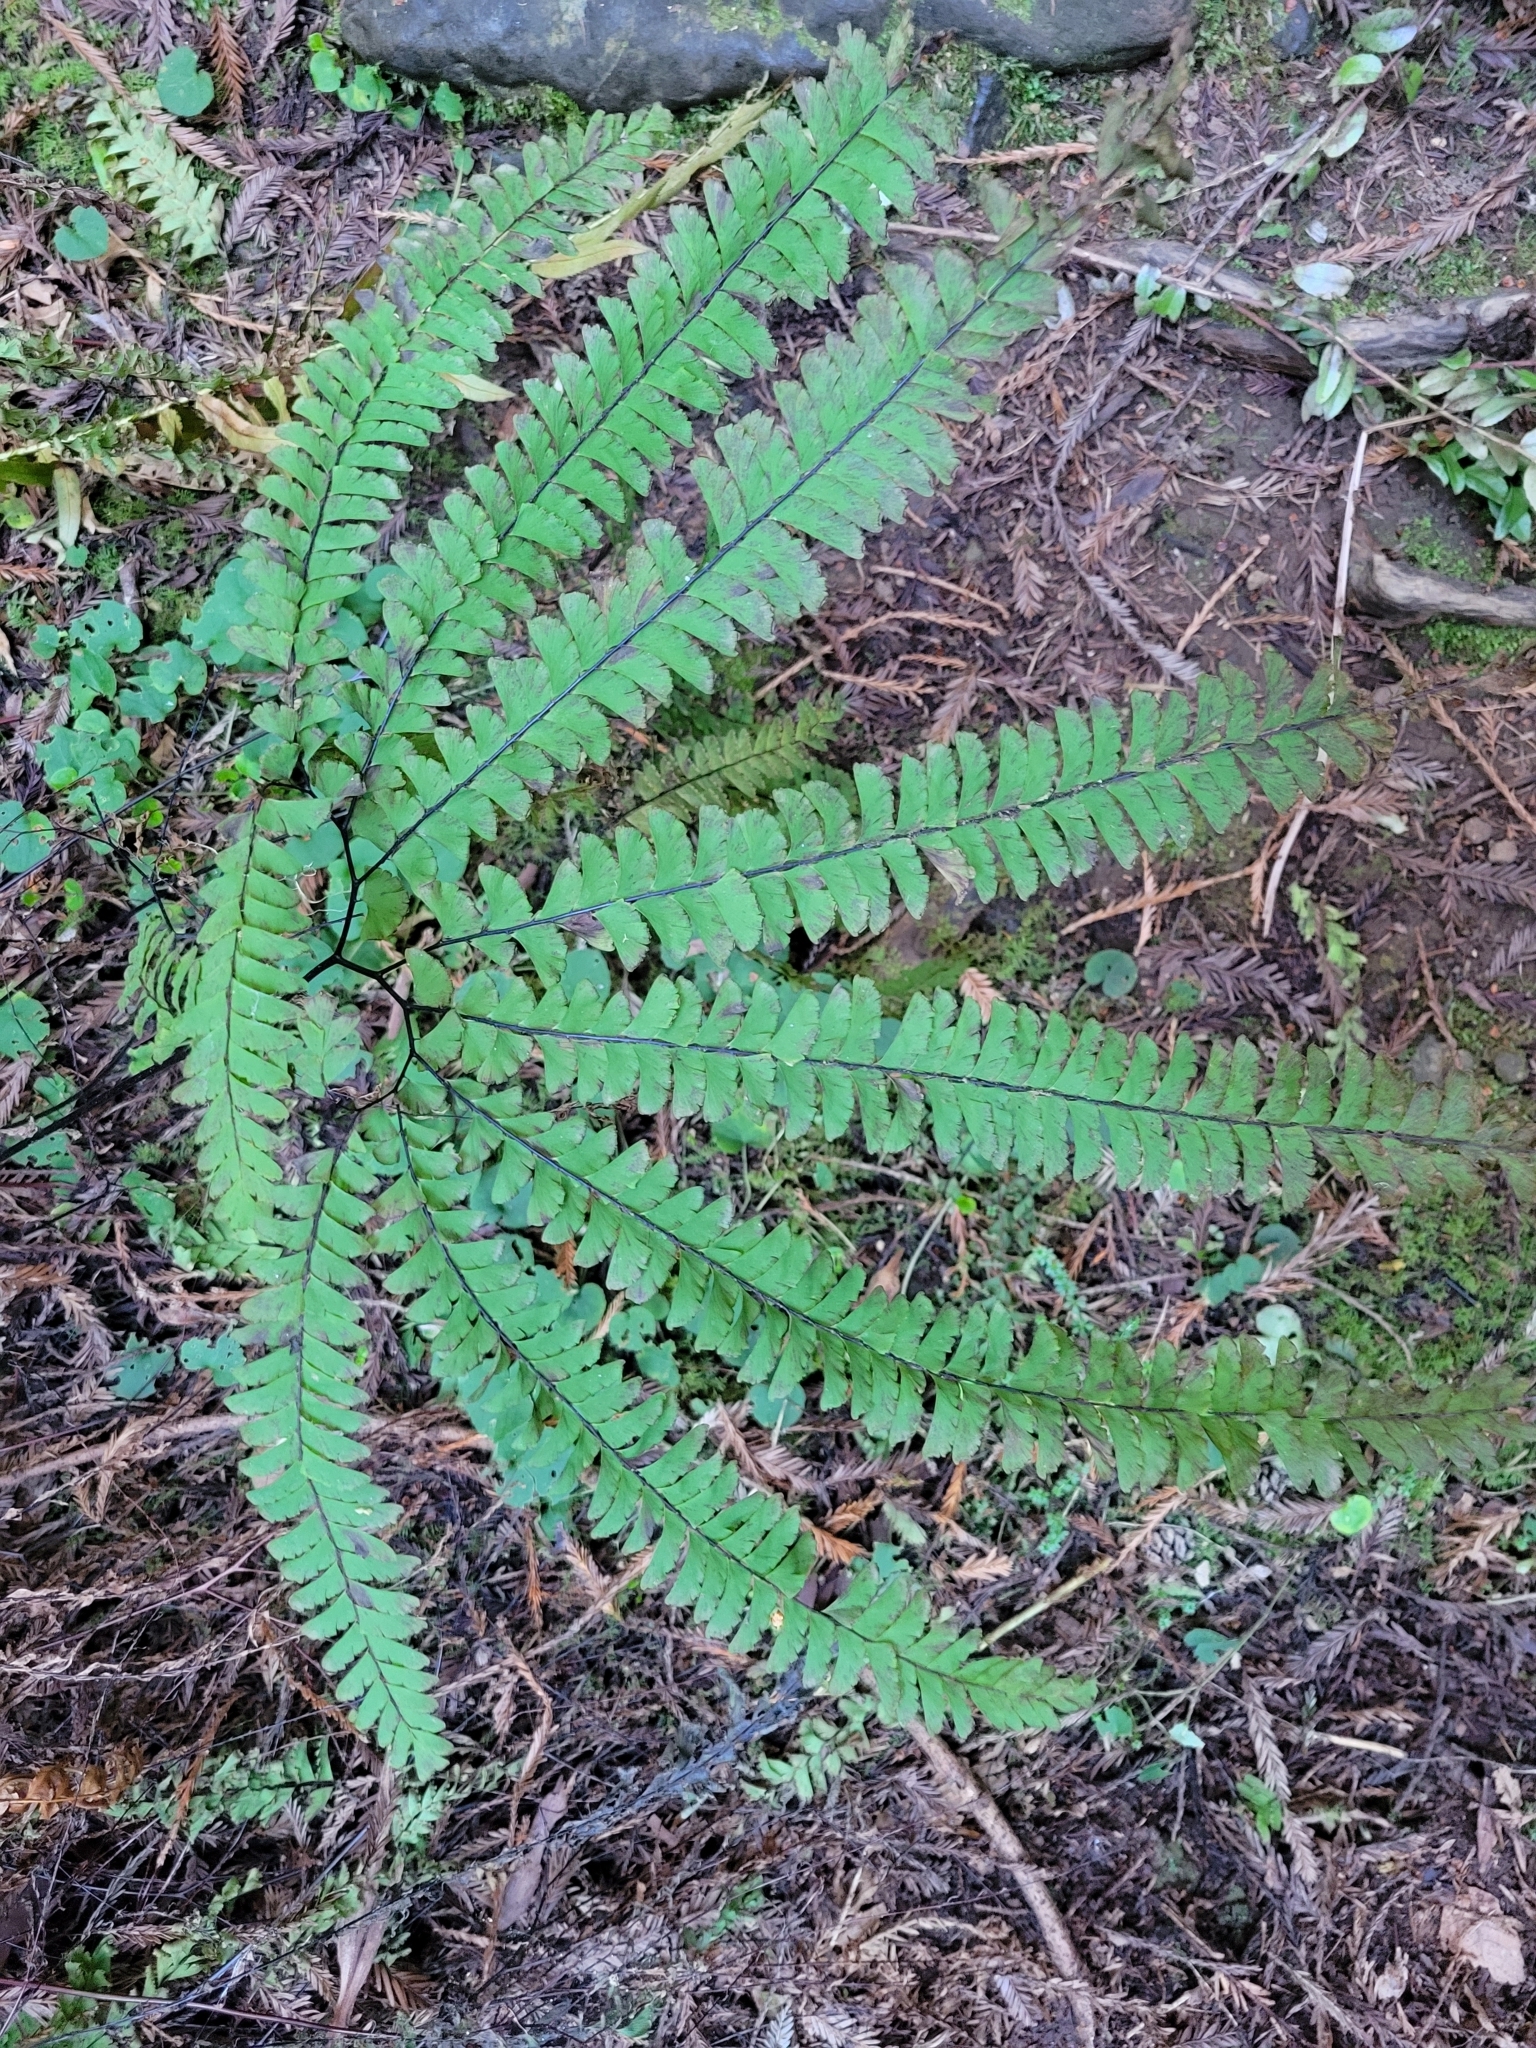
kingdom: Plantae
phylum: Tracheophyta
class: Polypodiopsida
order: Polypodiales
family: Pteridaceae
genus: Adiantum
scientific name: Adiantum aleuticum
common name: Aleutian maidenhair fern
